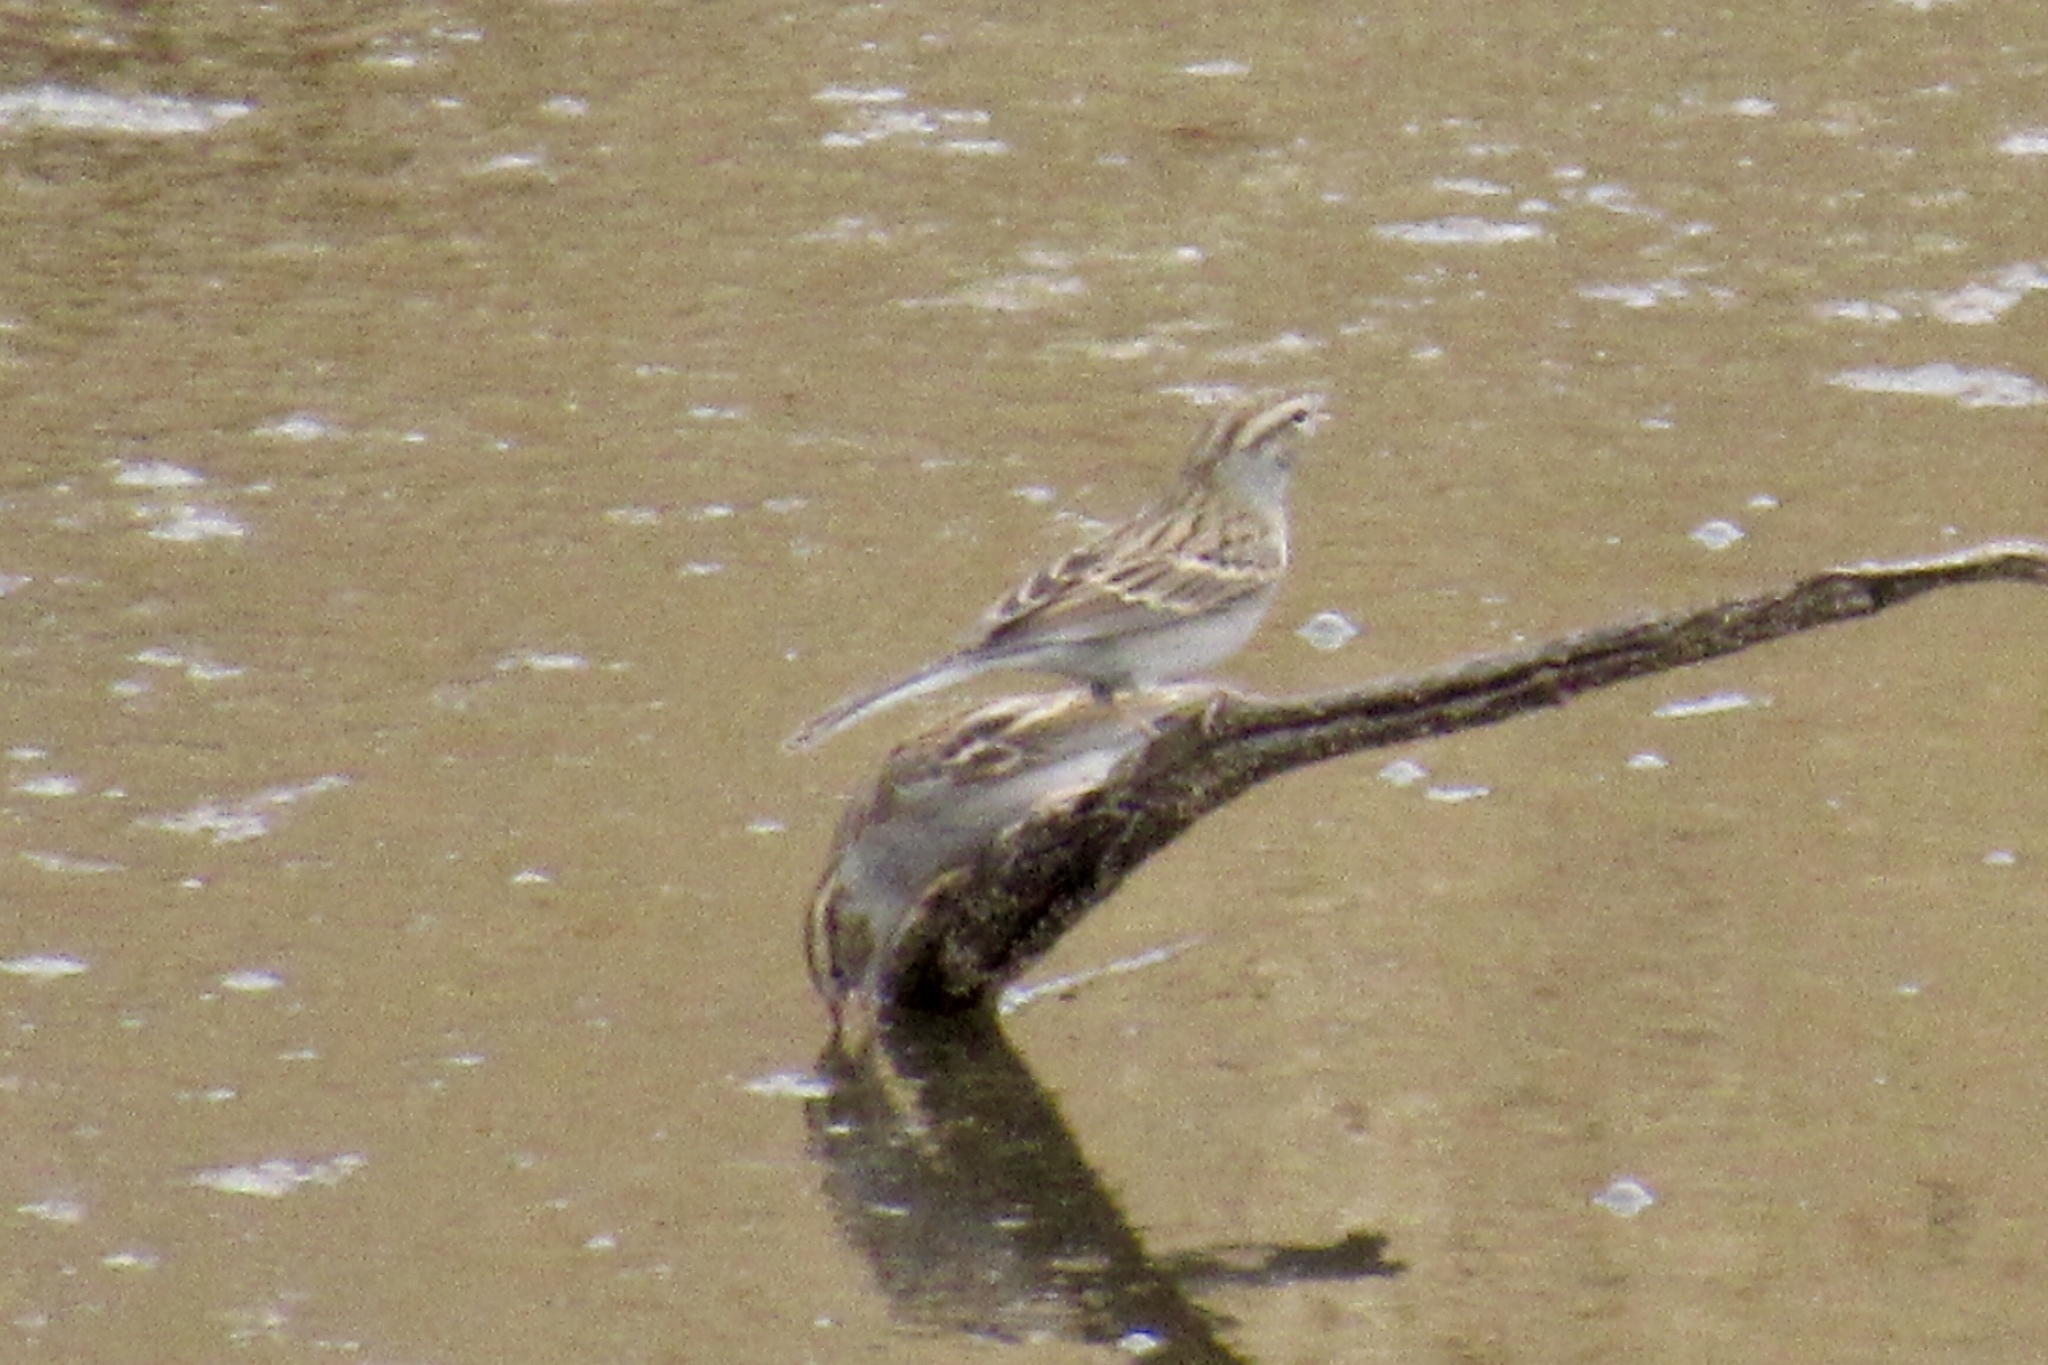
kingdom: Animalia
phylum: Chordata
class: Aves
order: Passeriformes
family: Passerellidae
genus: Spizella
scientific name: Spizella passerina
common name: Chipping sparrow
